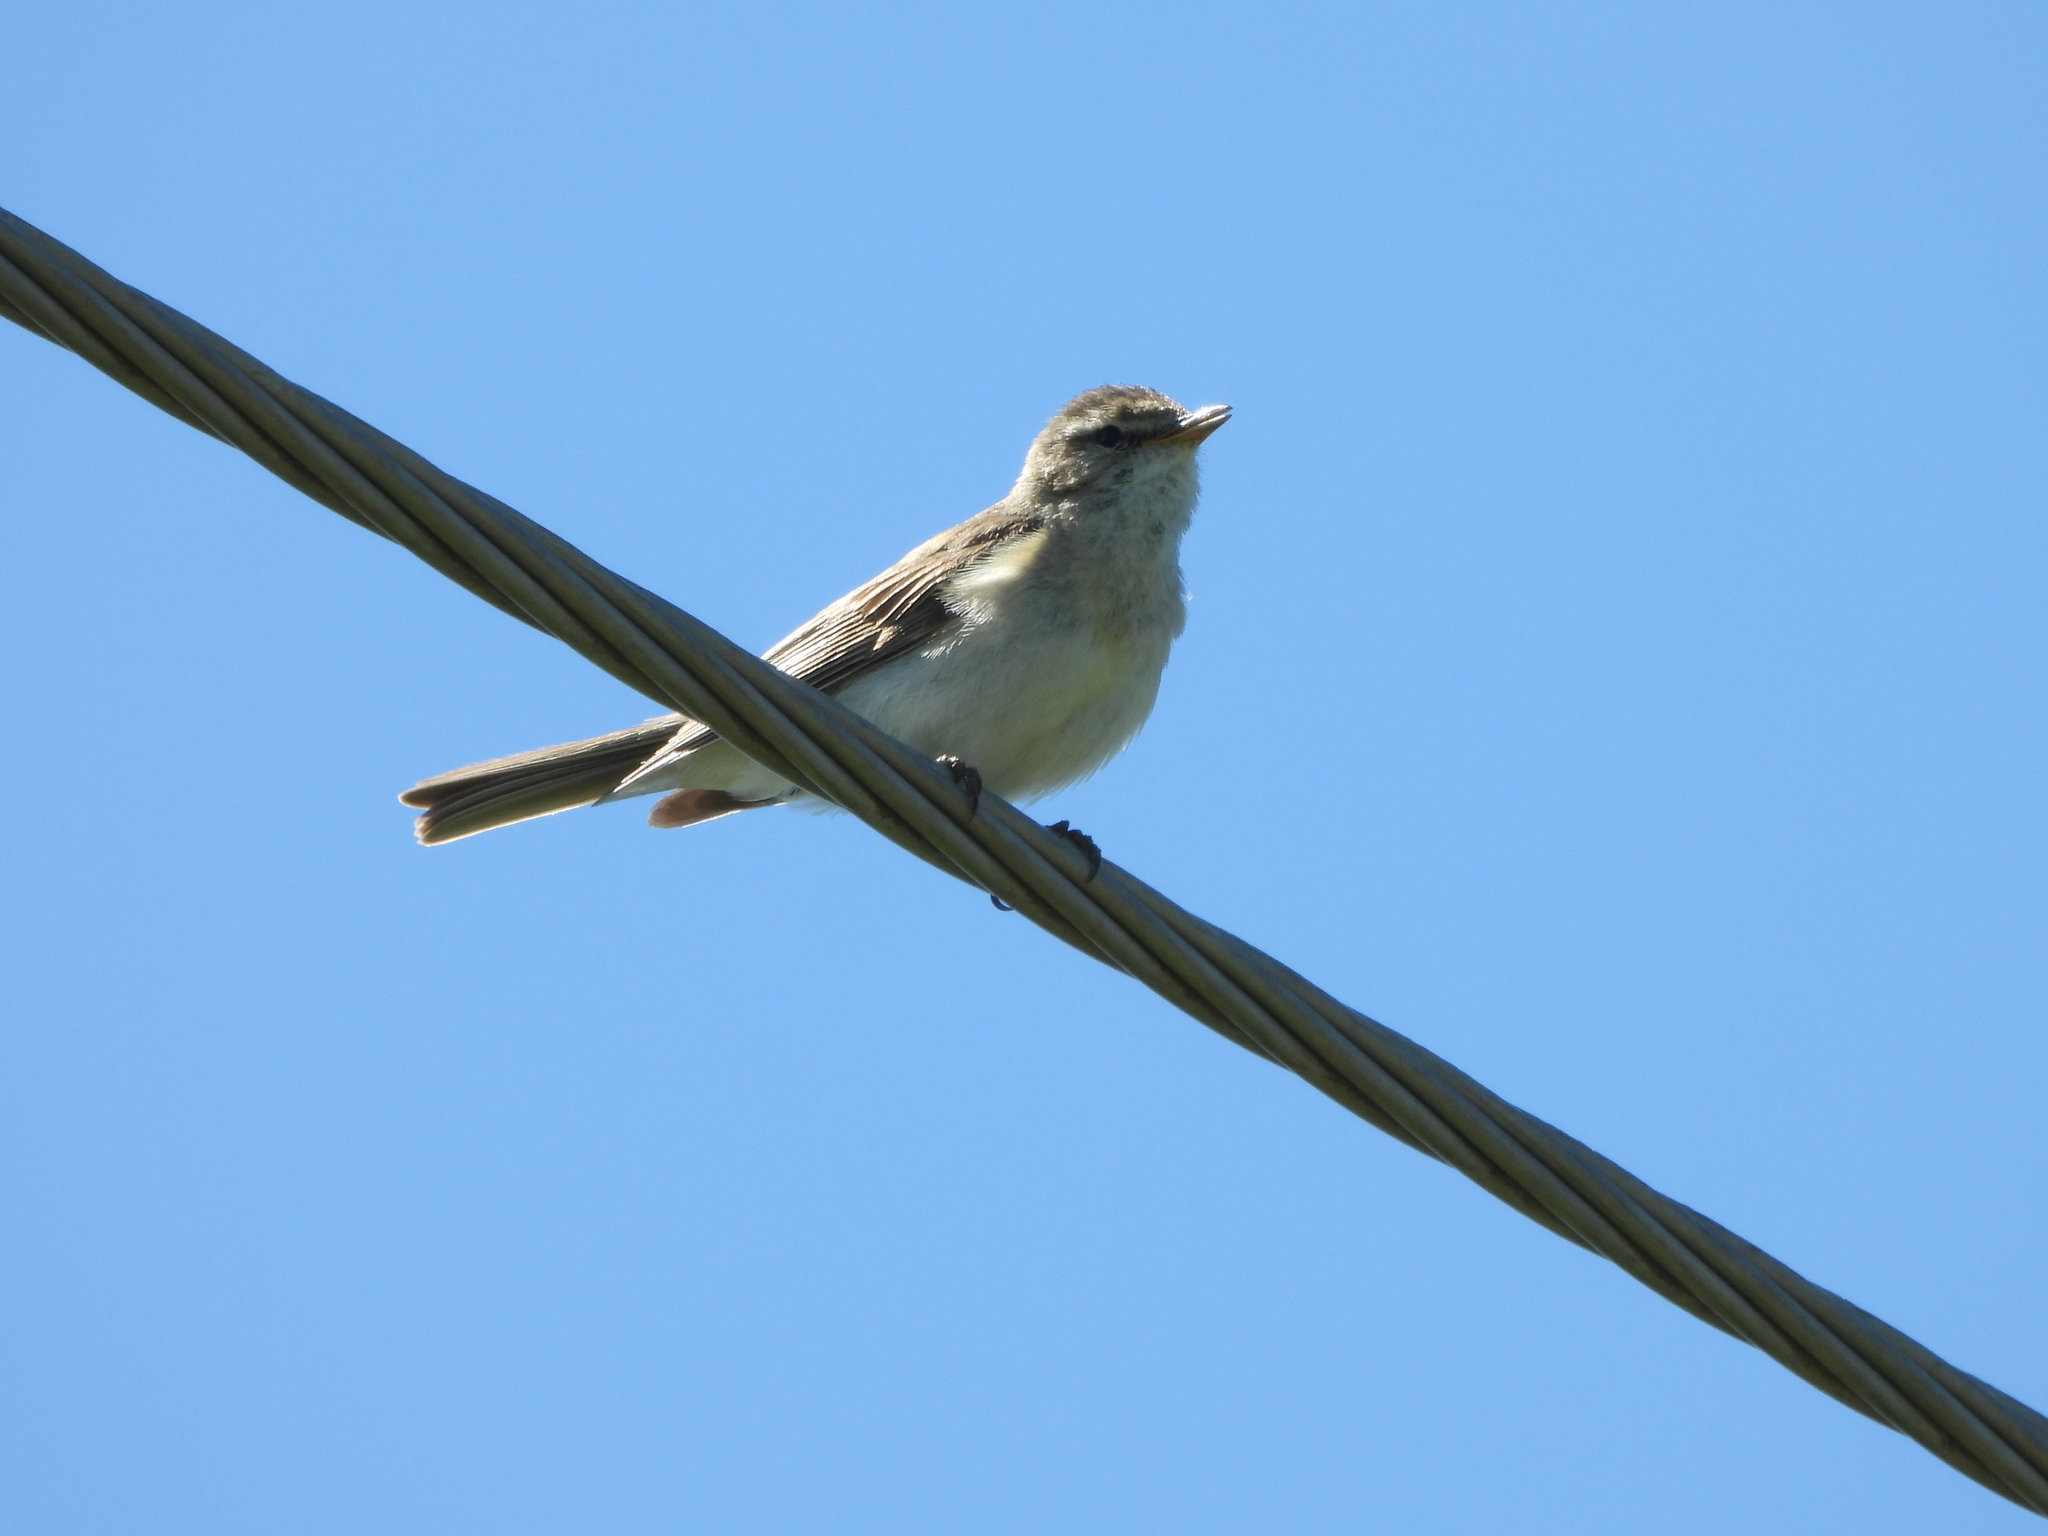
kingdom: Animalia
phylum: Chordata
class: Aves
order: Passeriformes
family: Phylloscopidae
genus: Phylloscopus
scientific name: Phylloscopus collybita
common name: Common chiffchaff
